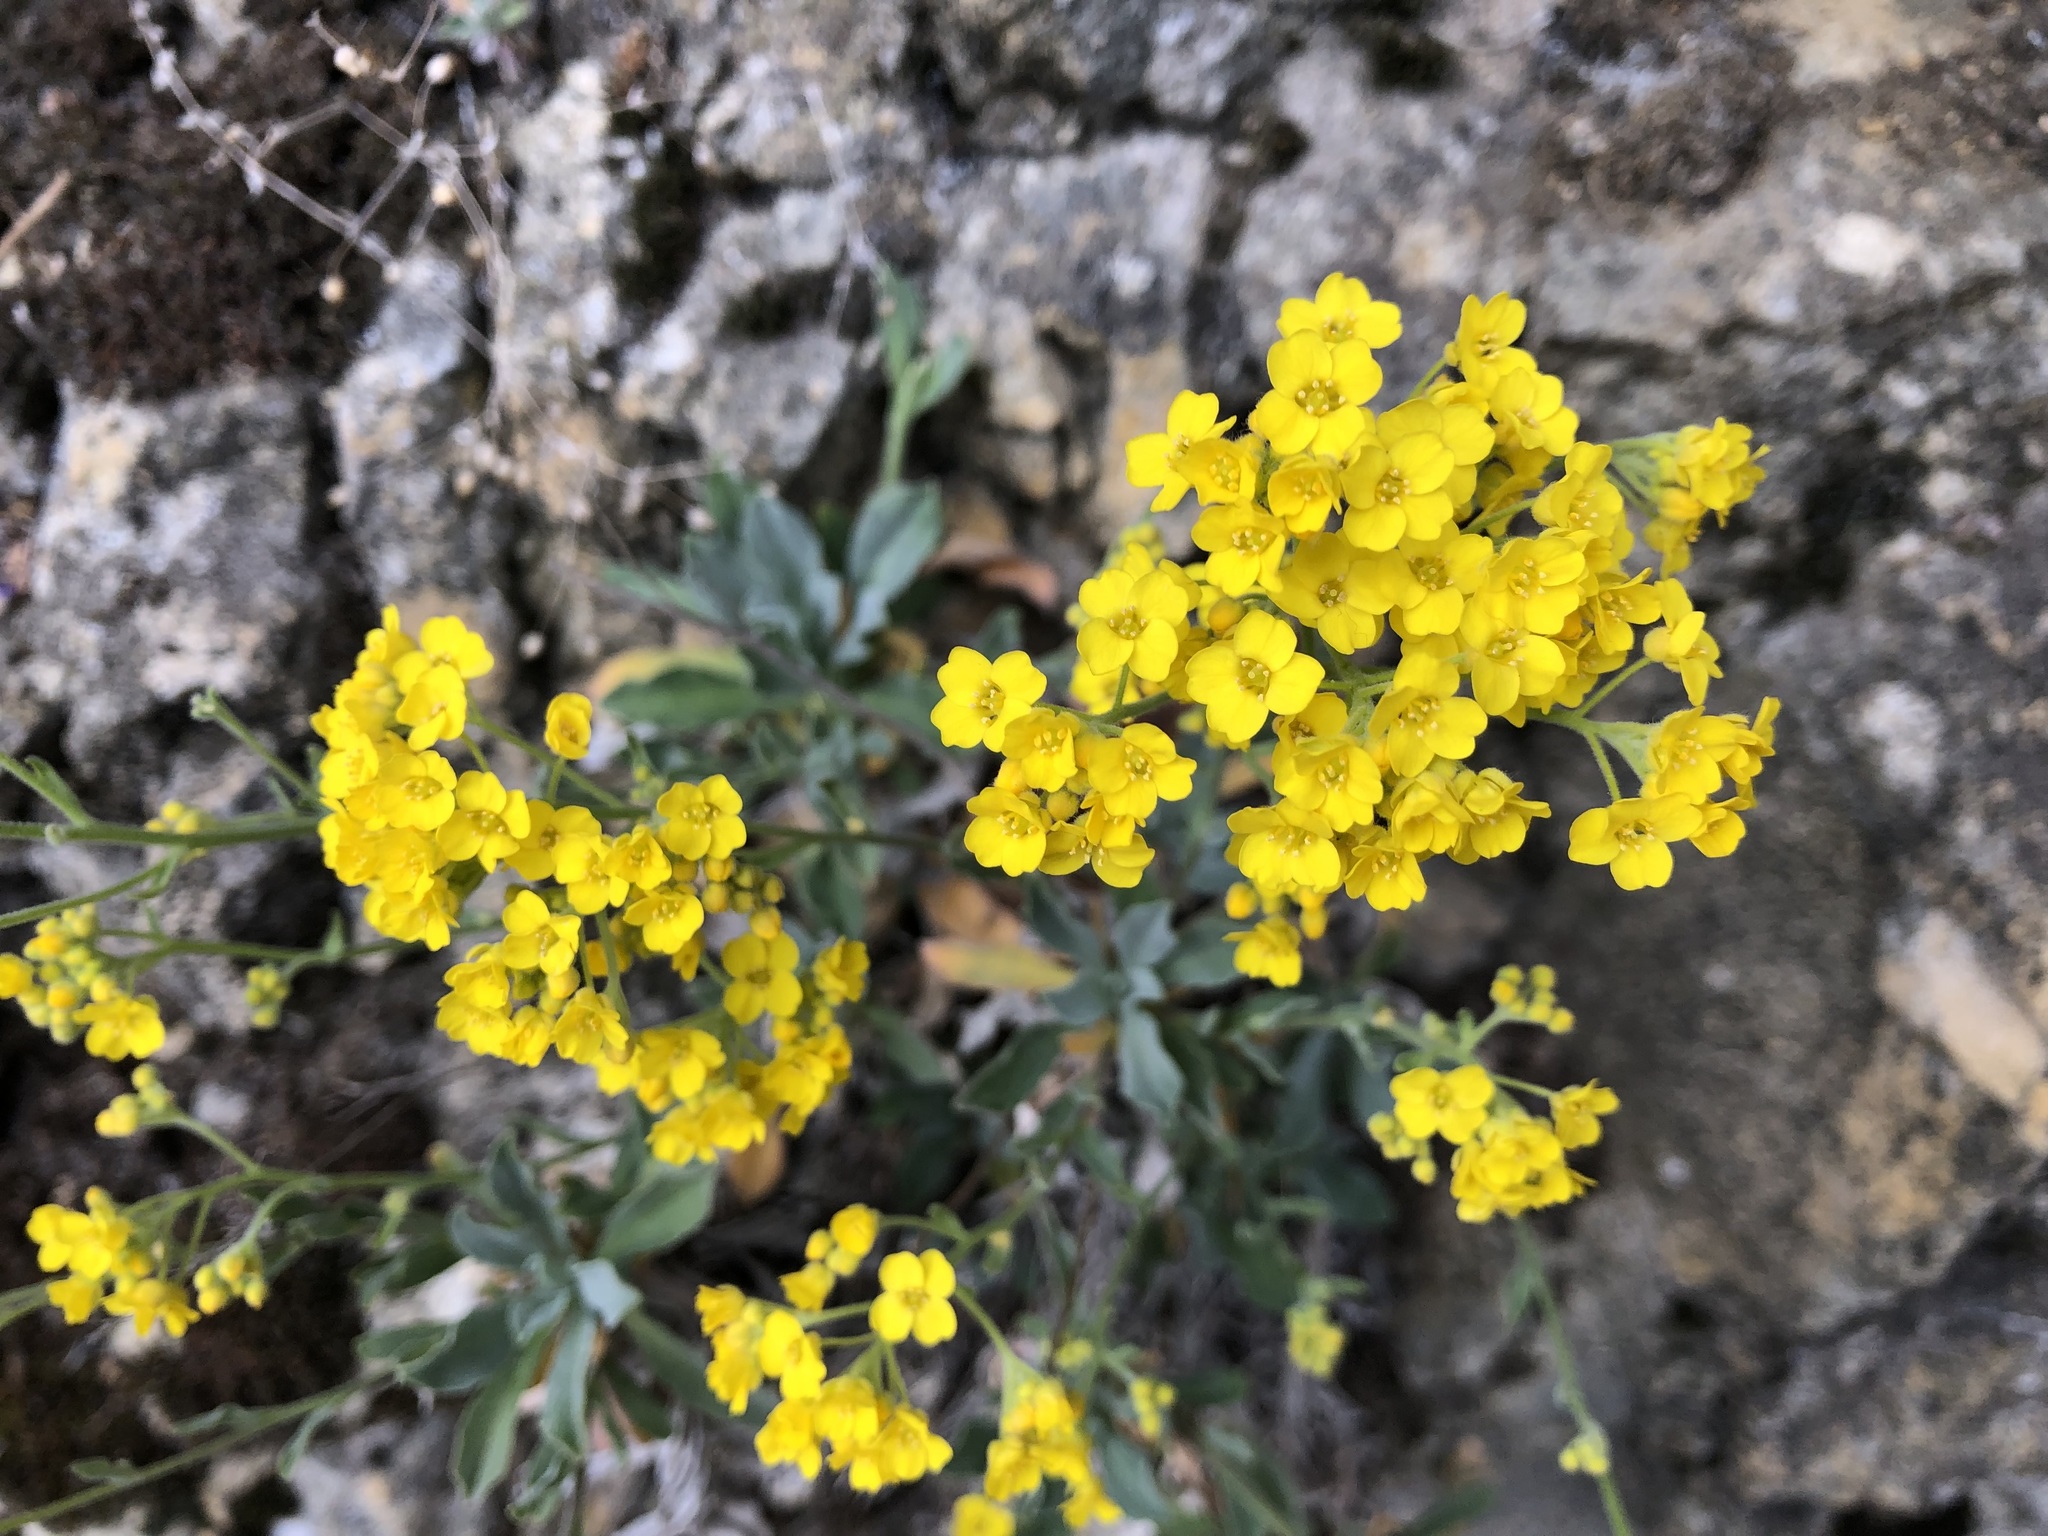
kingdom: Plantae
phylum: Tracheophyta
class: Magnoliopsida
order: Brassicales
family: Brassicaceae
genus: Aurinia
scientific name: Aurinia saxatilis
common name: Golden-tuft alyssum
